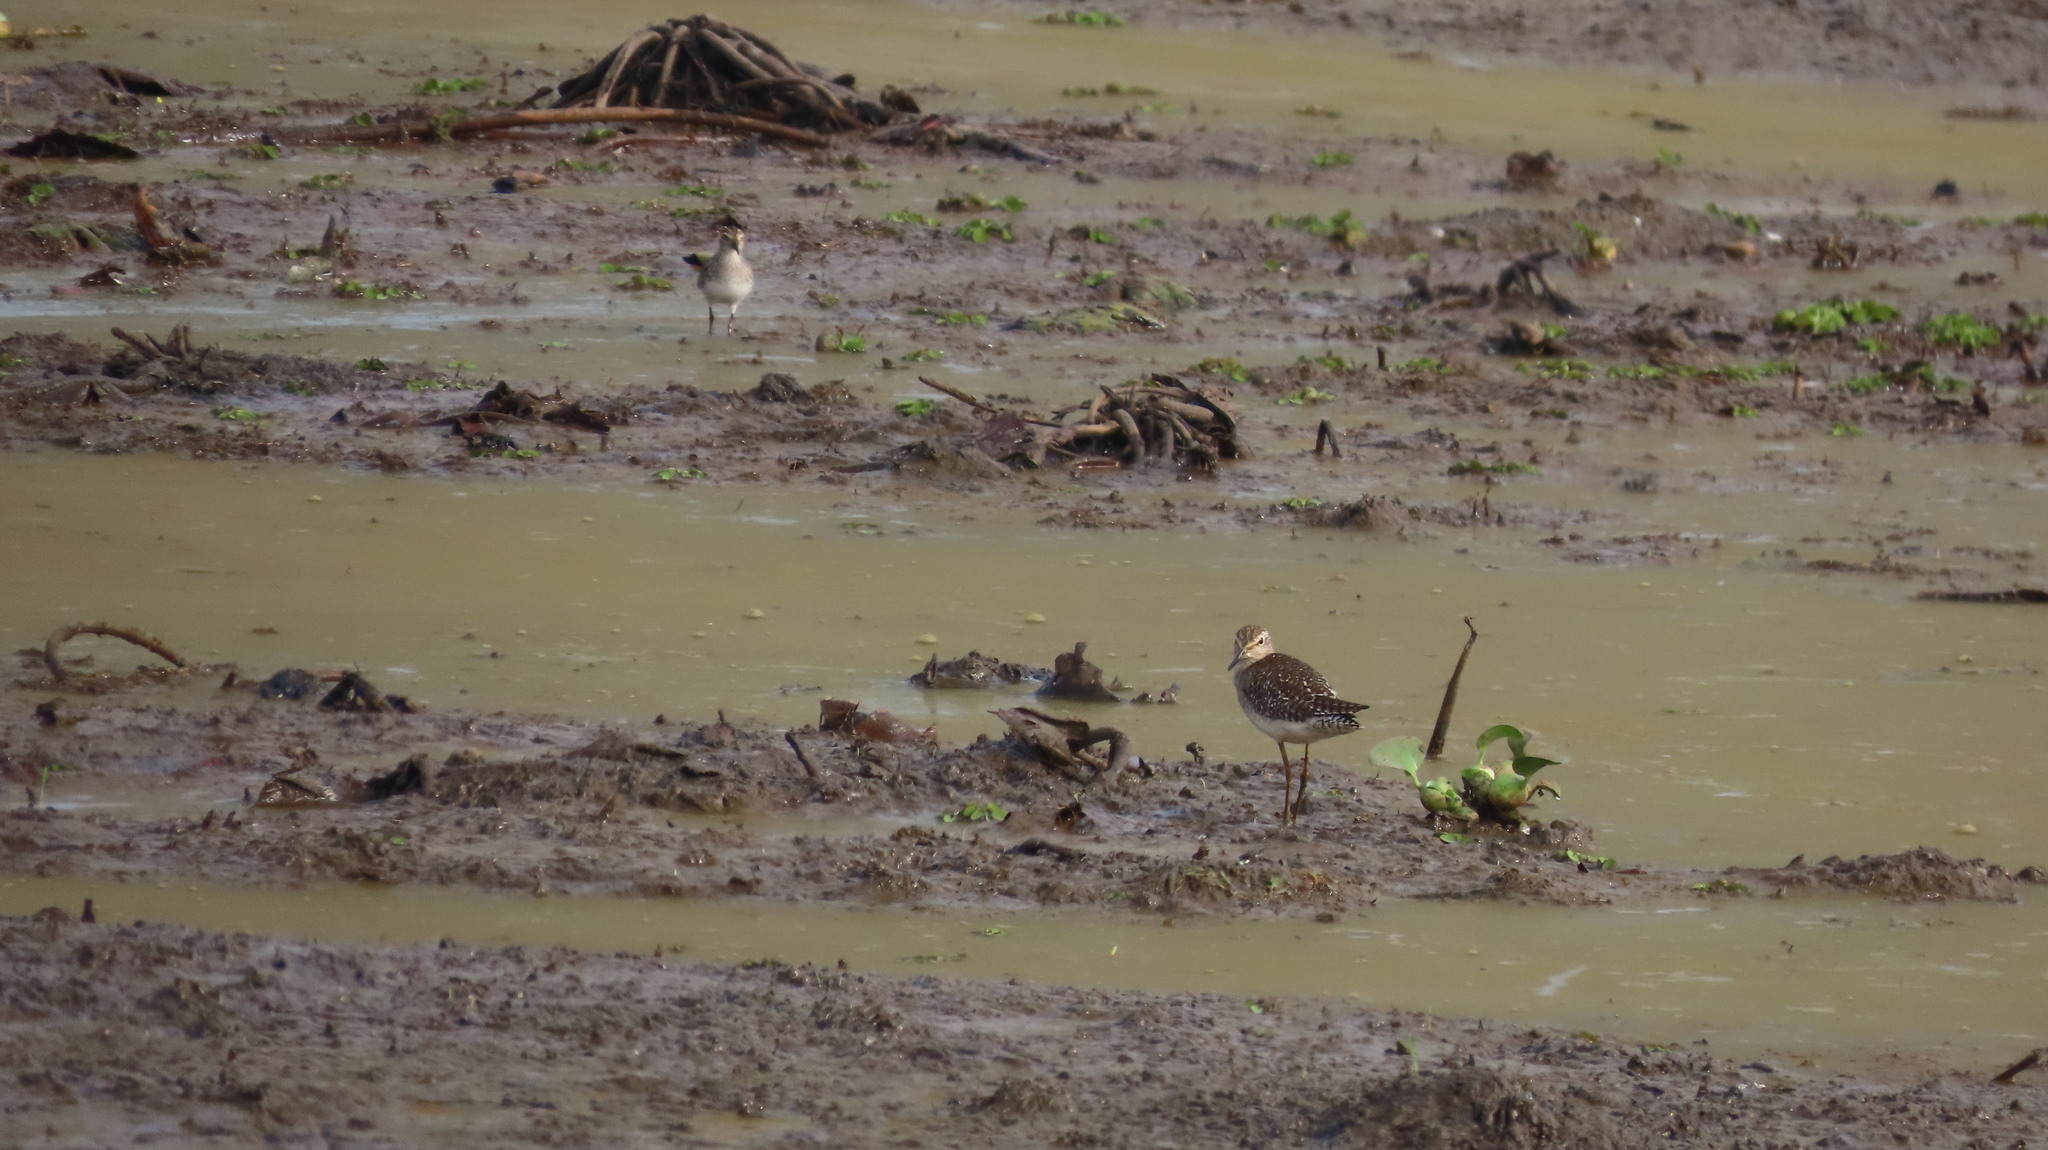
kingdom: Animalia
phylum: Chordata
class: Aves
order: Charadriiformes
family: Scolopacidae
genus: Tringa
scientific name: Tringa glareola
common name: Wood sandpiper
